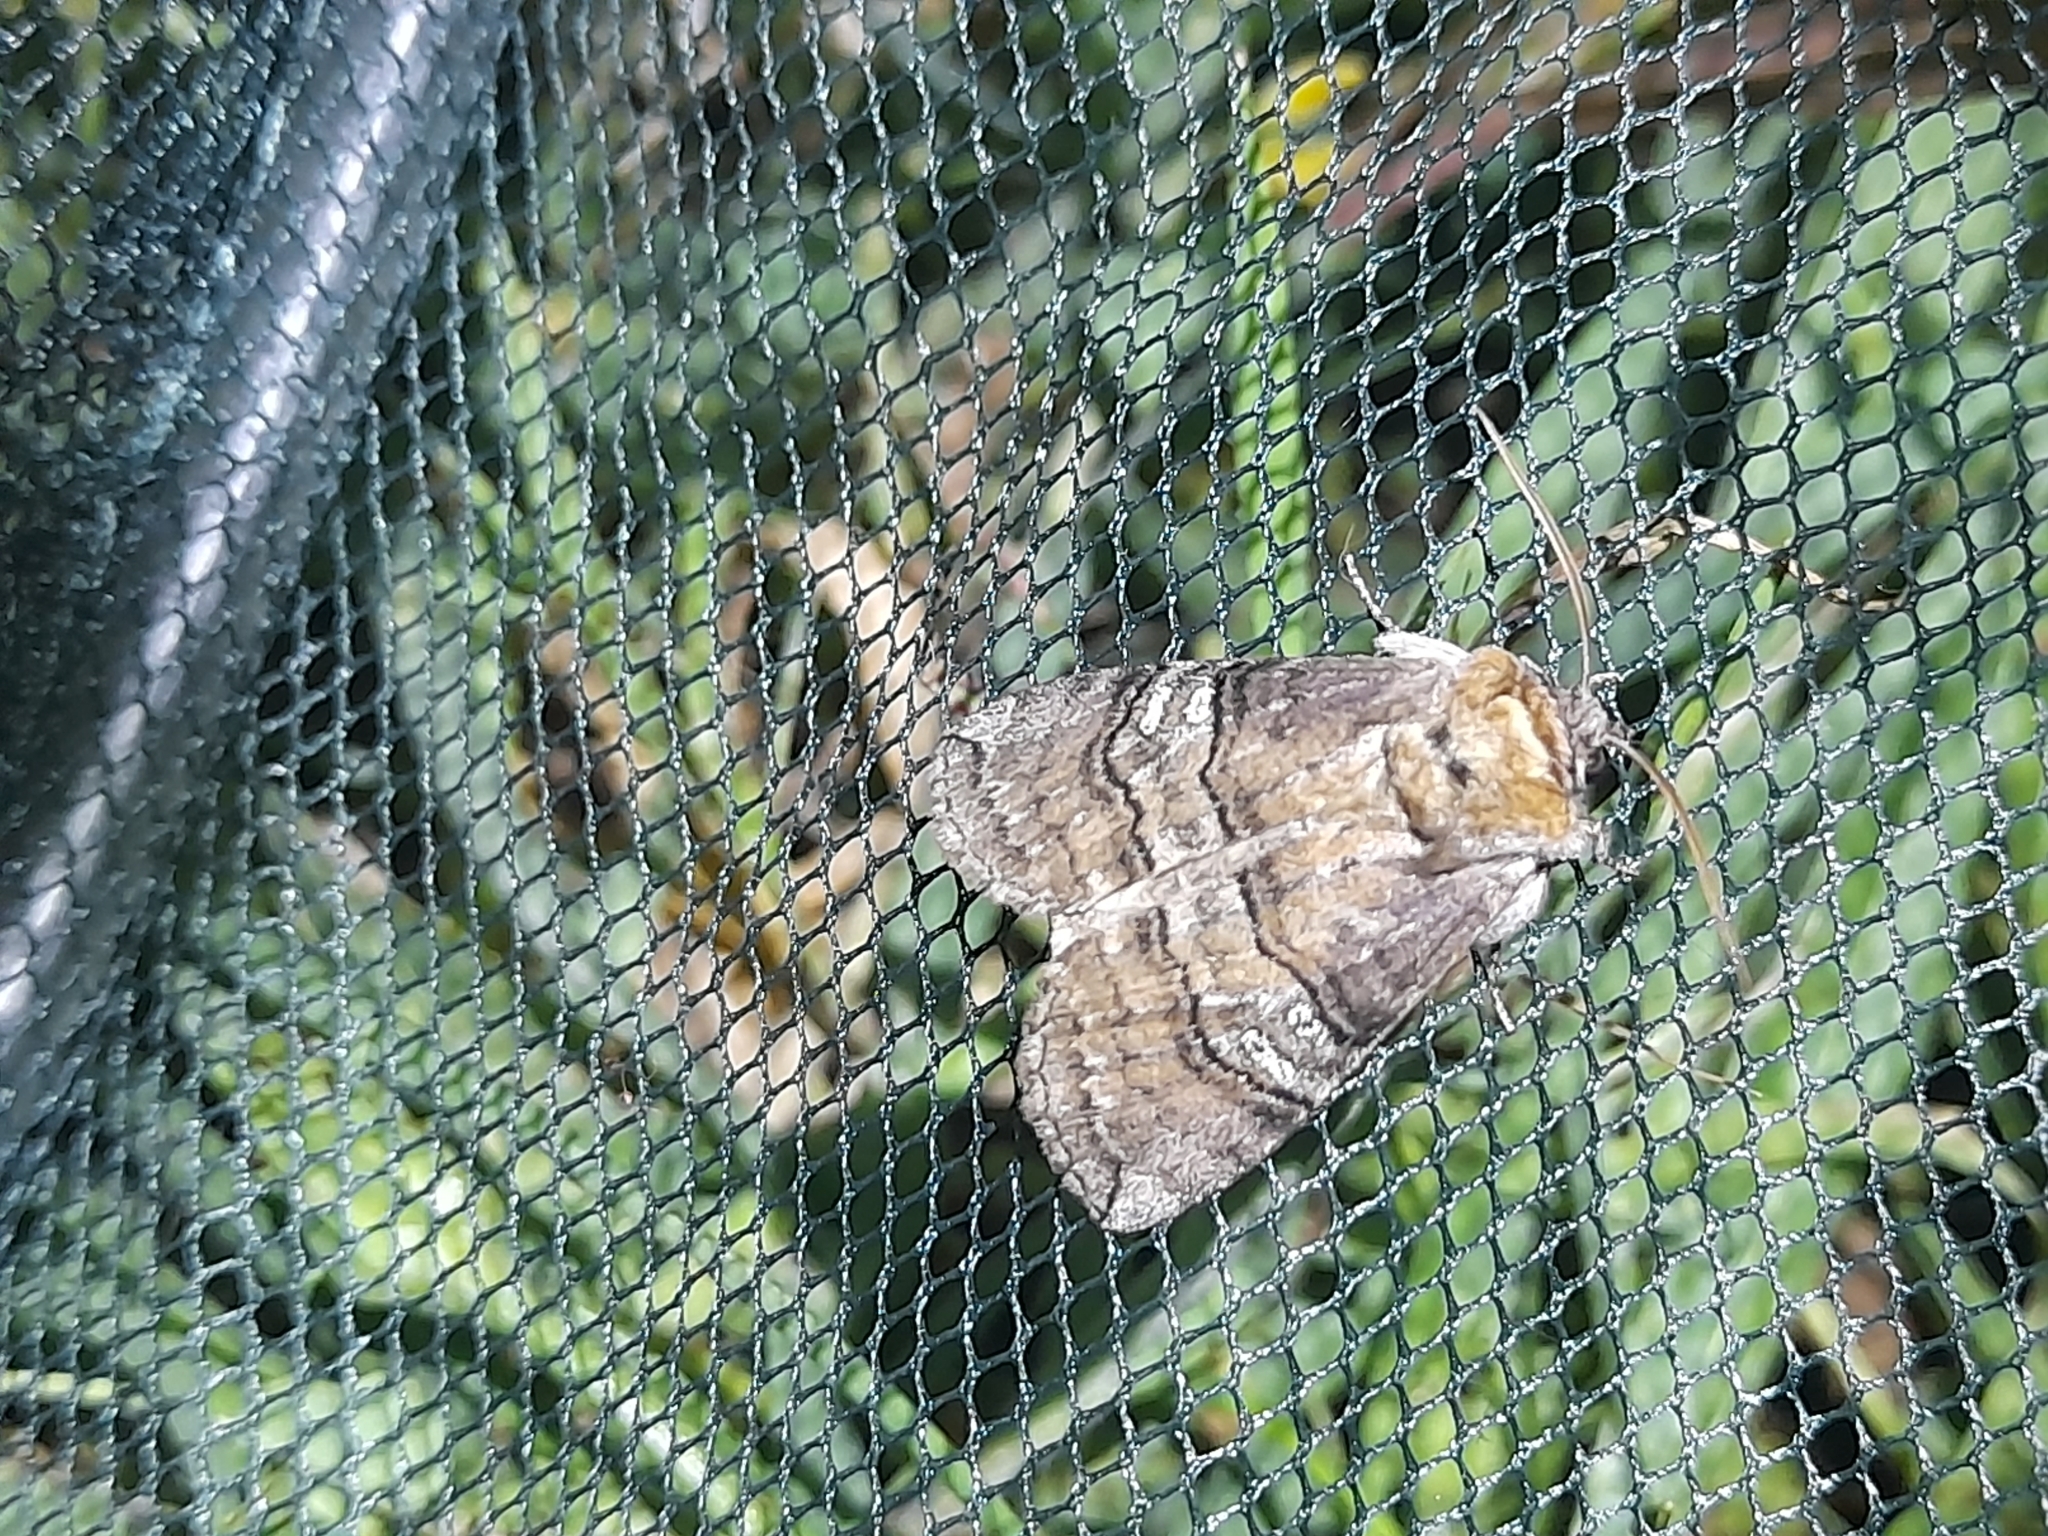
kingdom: Animalia
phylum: Arthropoda
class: Insecta
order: Lepidoptera
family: Drepanidae
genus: Tethea
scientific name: Tethea ocularis
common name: Figure of eighty
